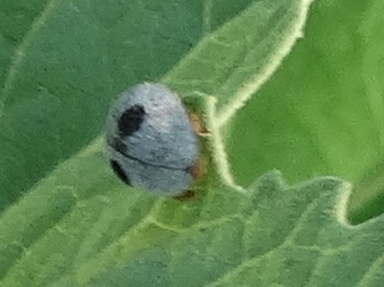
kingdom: Animalia
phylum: Arthropoda
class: Insecta
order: Coleoptera
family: Coccinellidae
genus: Azya
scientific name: Azya orbigera
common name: Ladybird beetle
